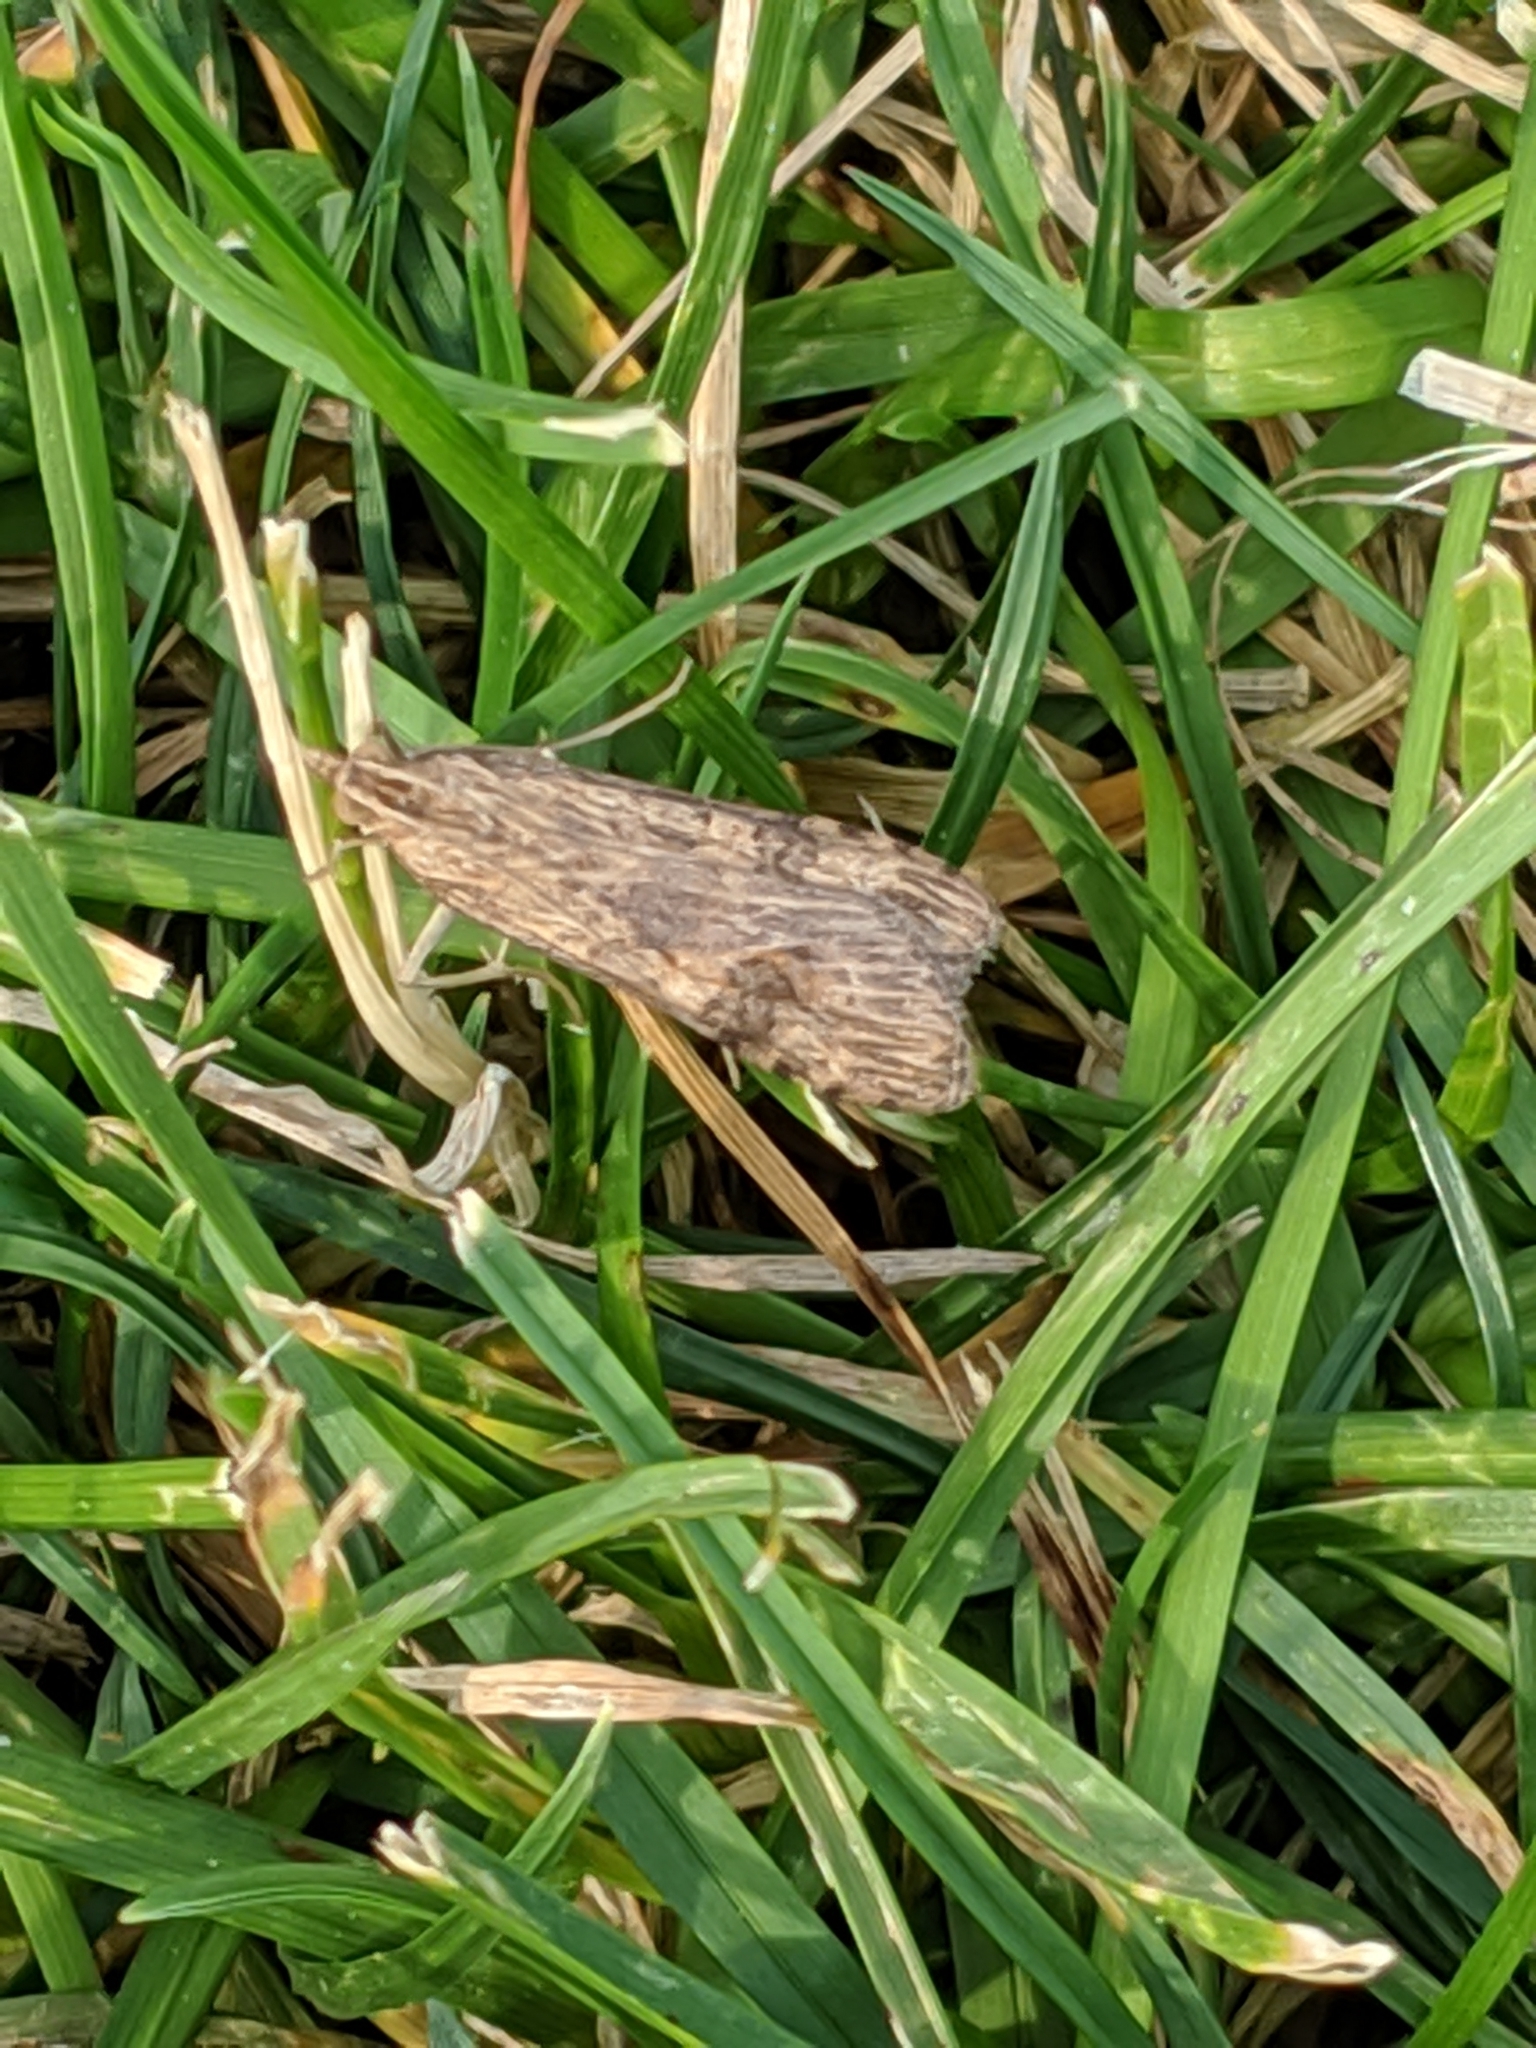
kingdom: Animalia
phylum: Arthropoda
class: Insecta
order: Lepidoptera
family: Crambidae
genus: Nomophila
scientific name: Nomophila nearctica
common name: American rush veneer
